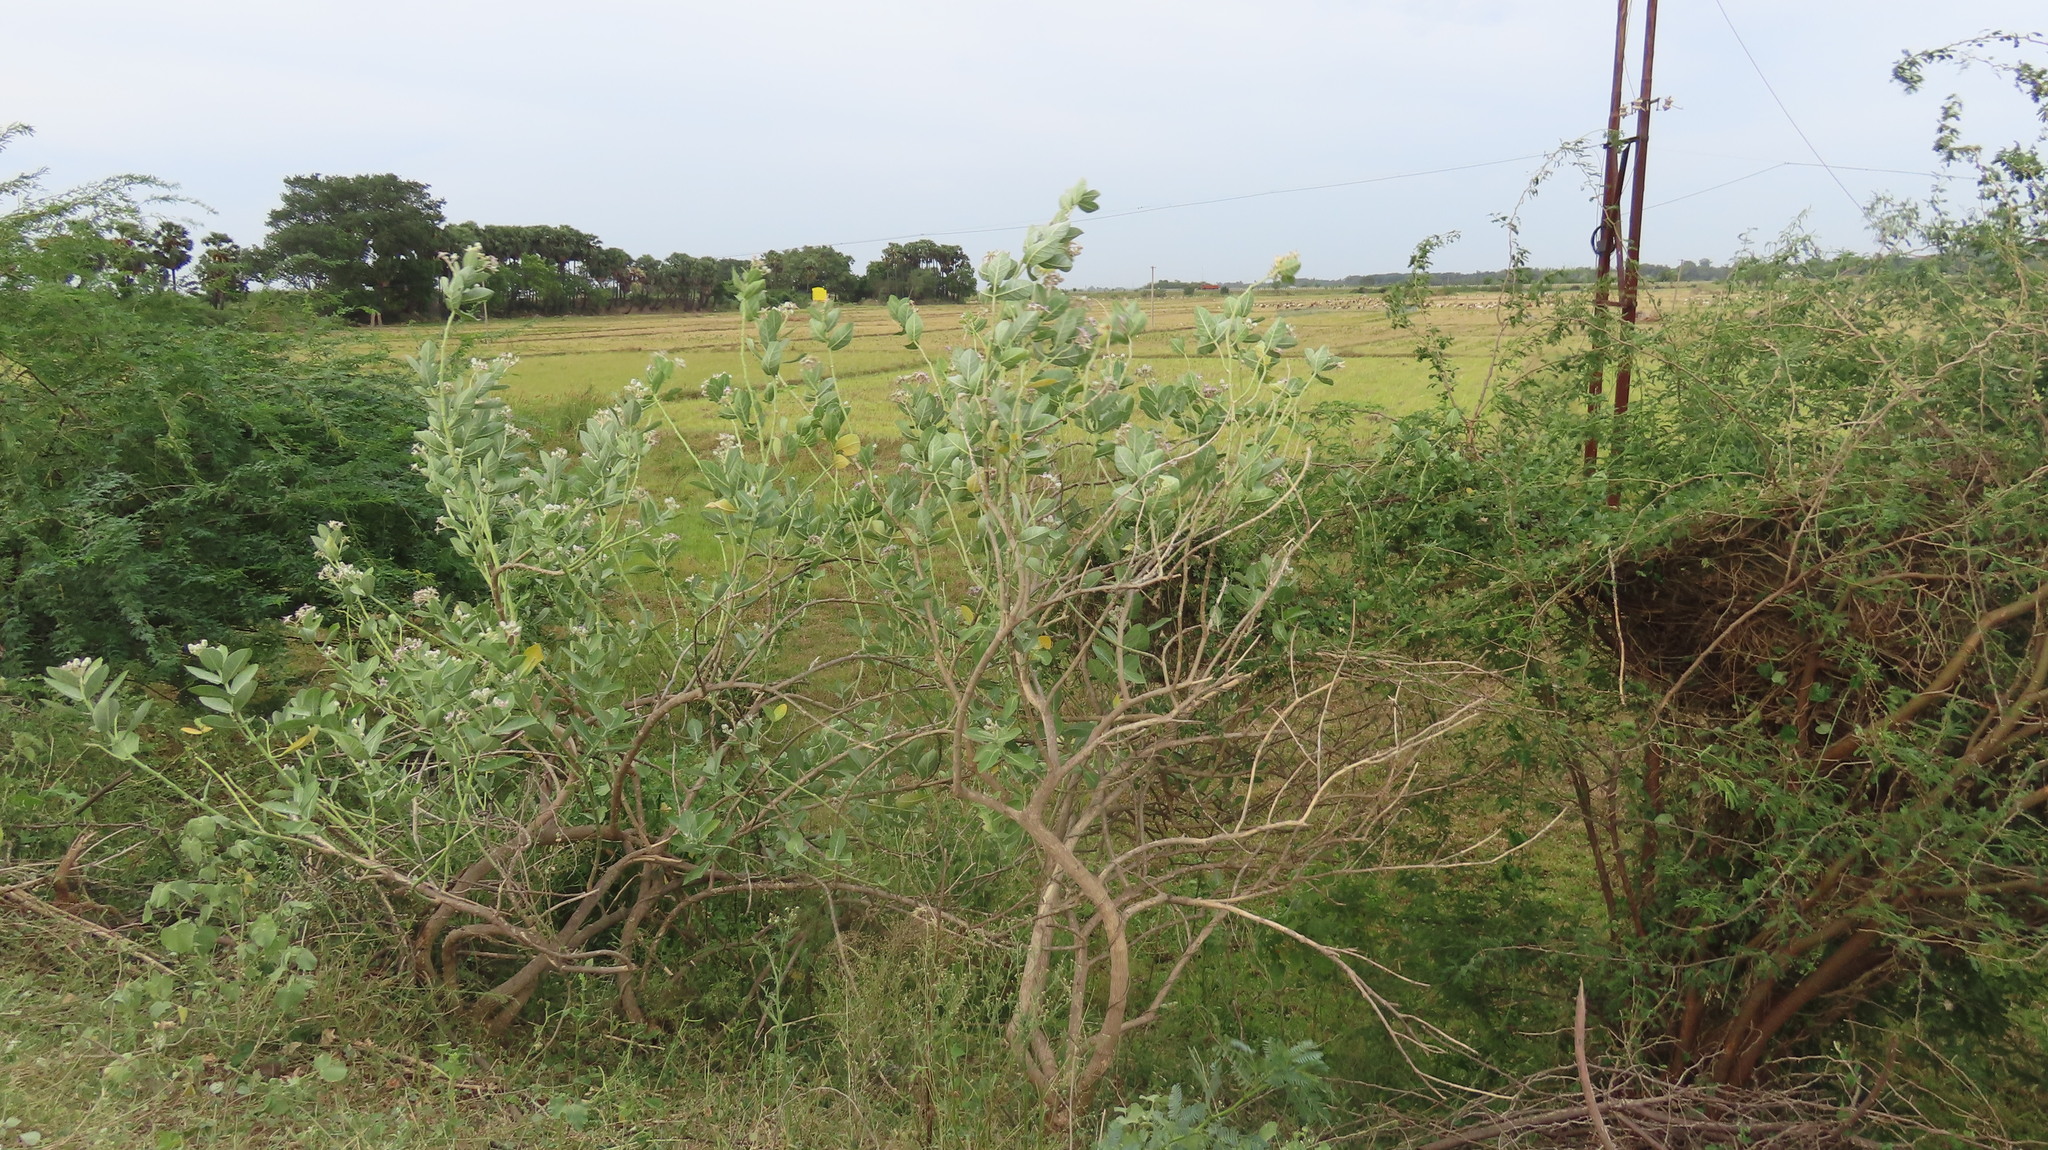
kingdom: Plantae
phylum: Tracheophyta
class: Magnoliopsida
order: Gentianales
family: Apocynaceae
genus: Calotropis
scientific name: Calotropis gigantea
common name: Crown flower
